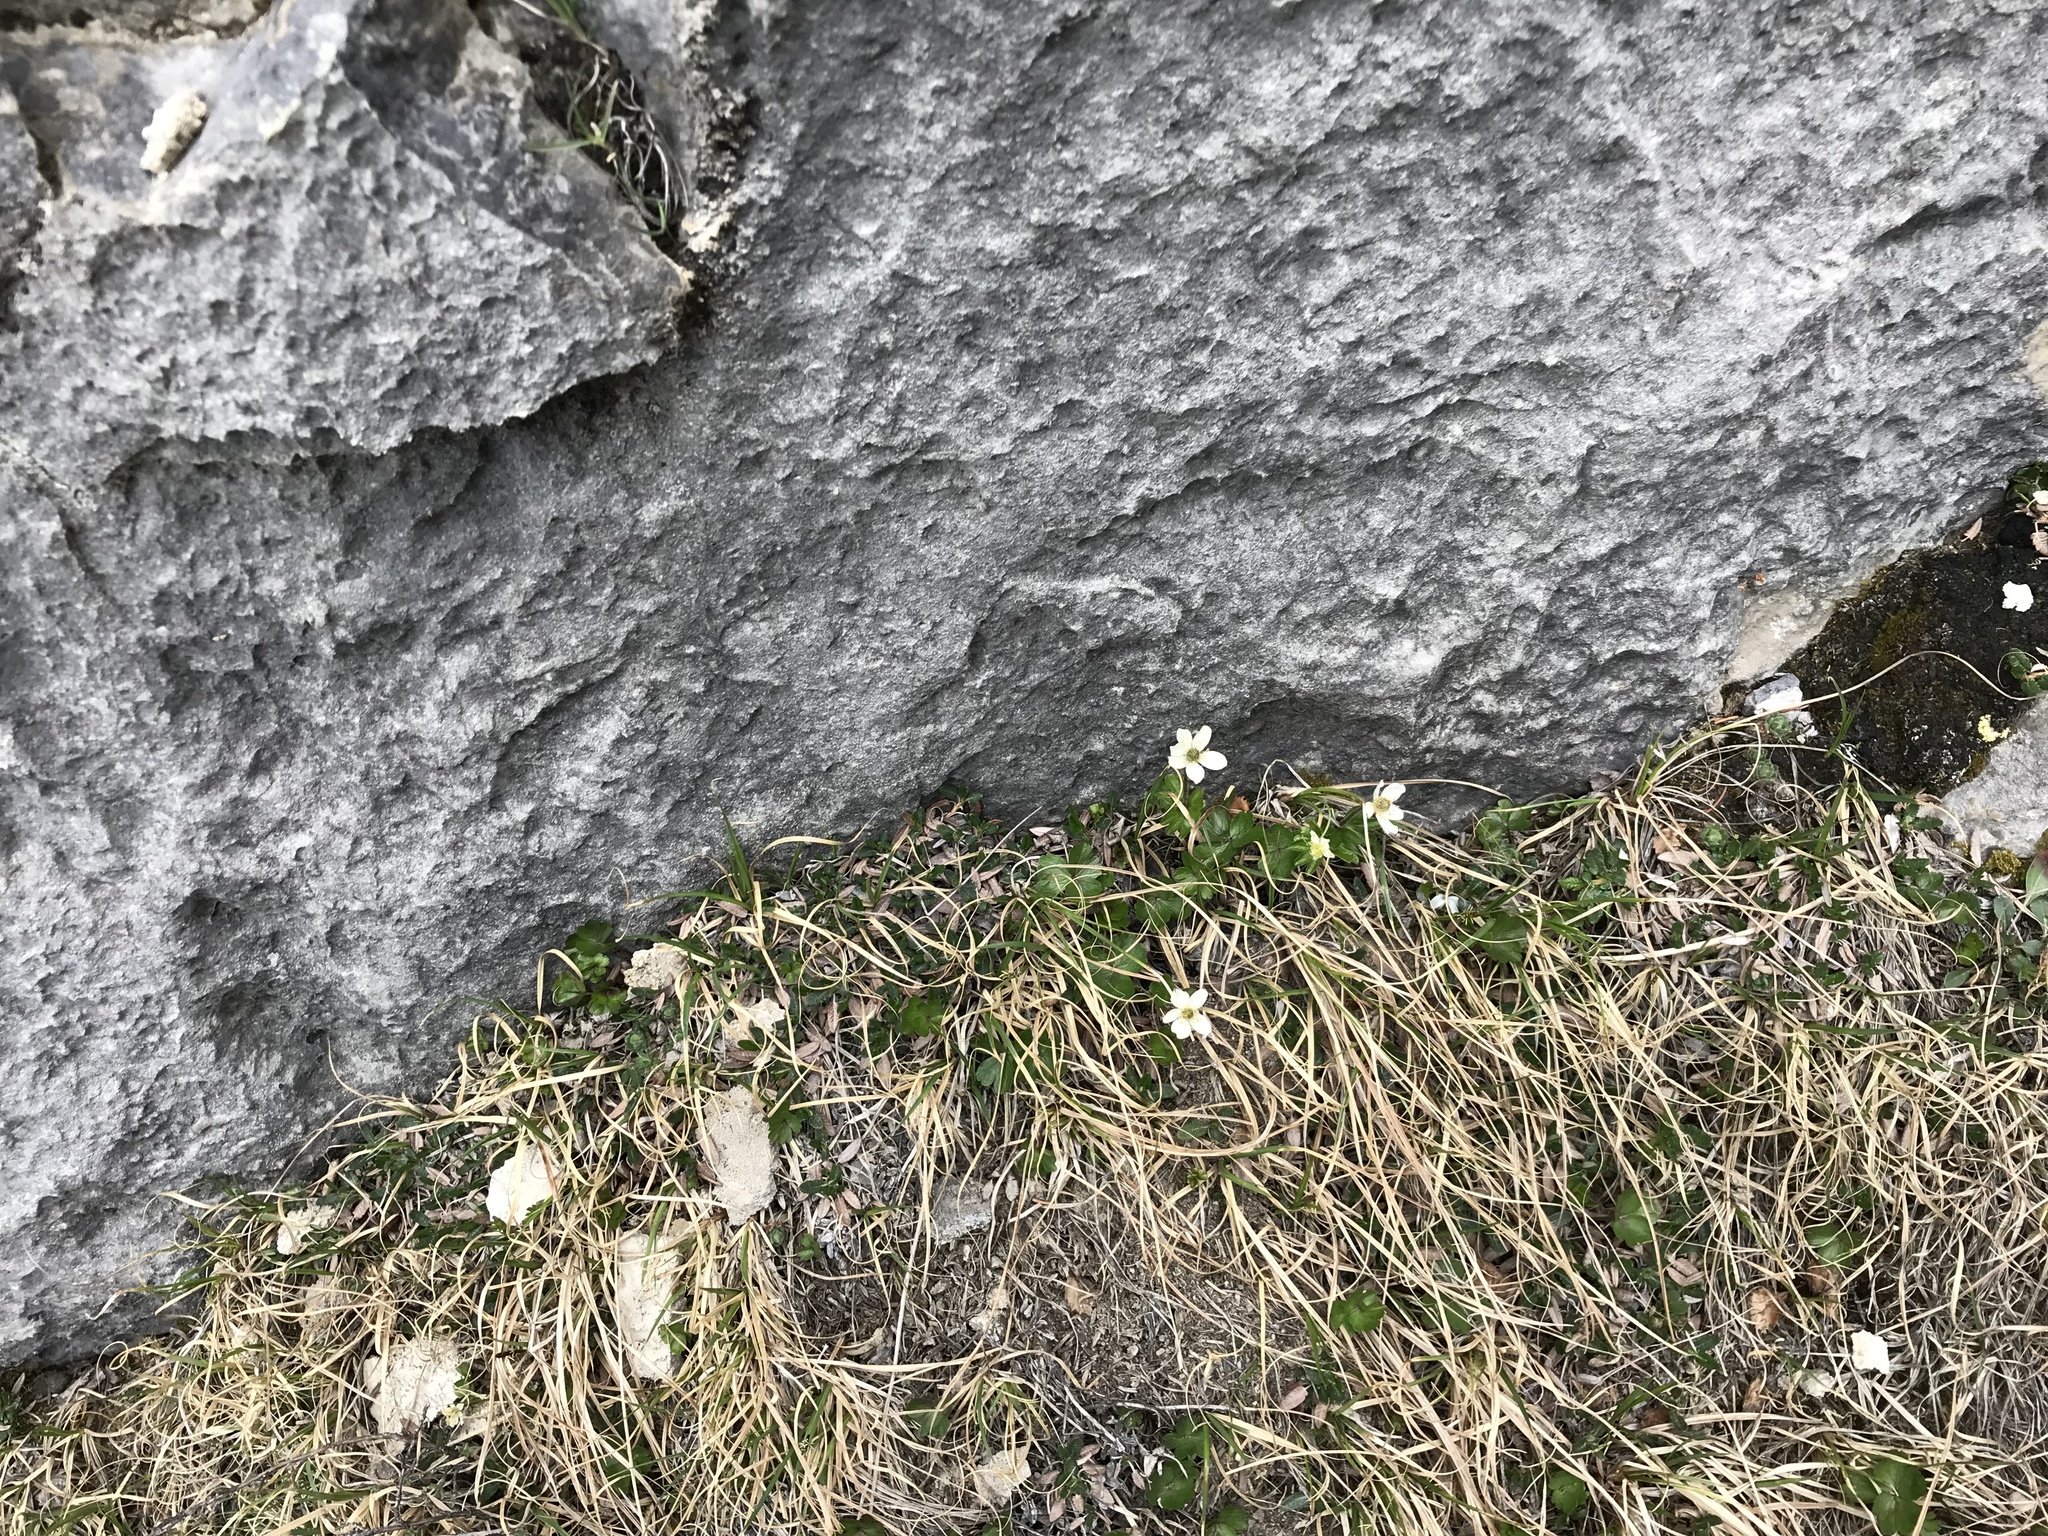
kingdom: Plantae
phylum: Tracheophyta
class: Magnoliopsida
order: Ranunculales
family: Ranunculaceae
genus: Anemone
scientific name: Anemone parviflora
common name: Northern anemone
